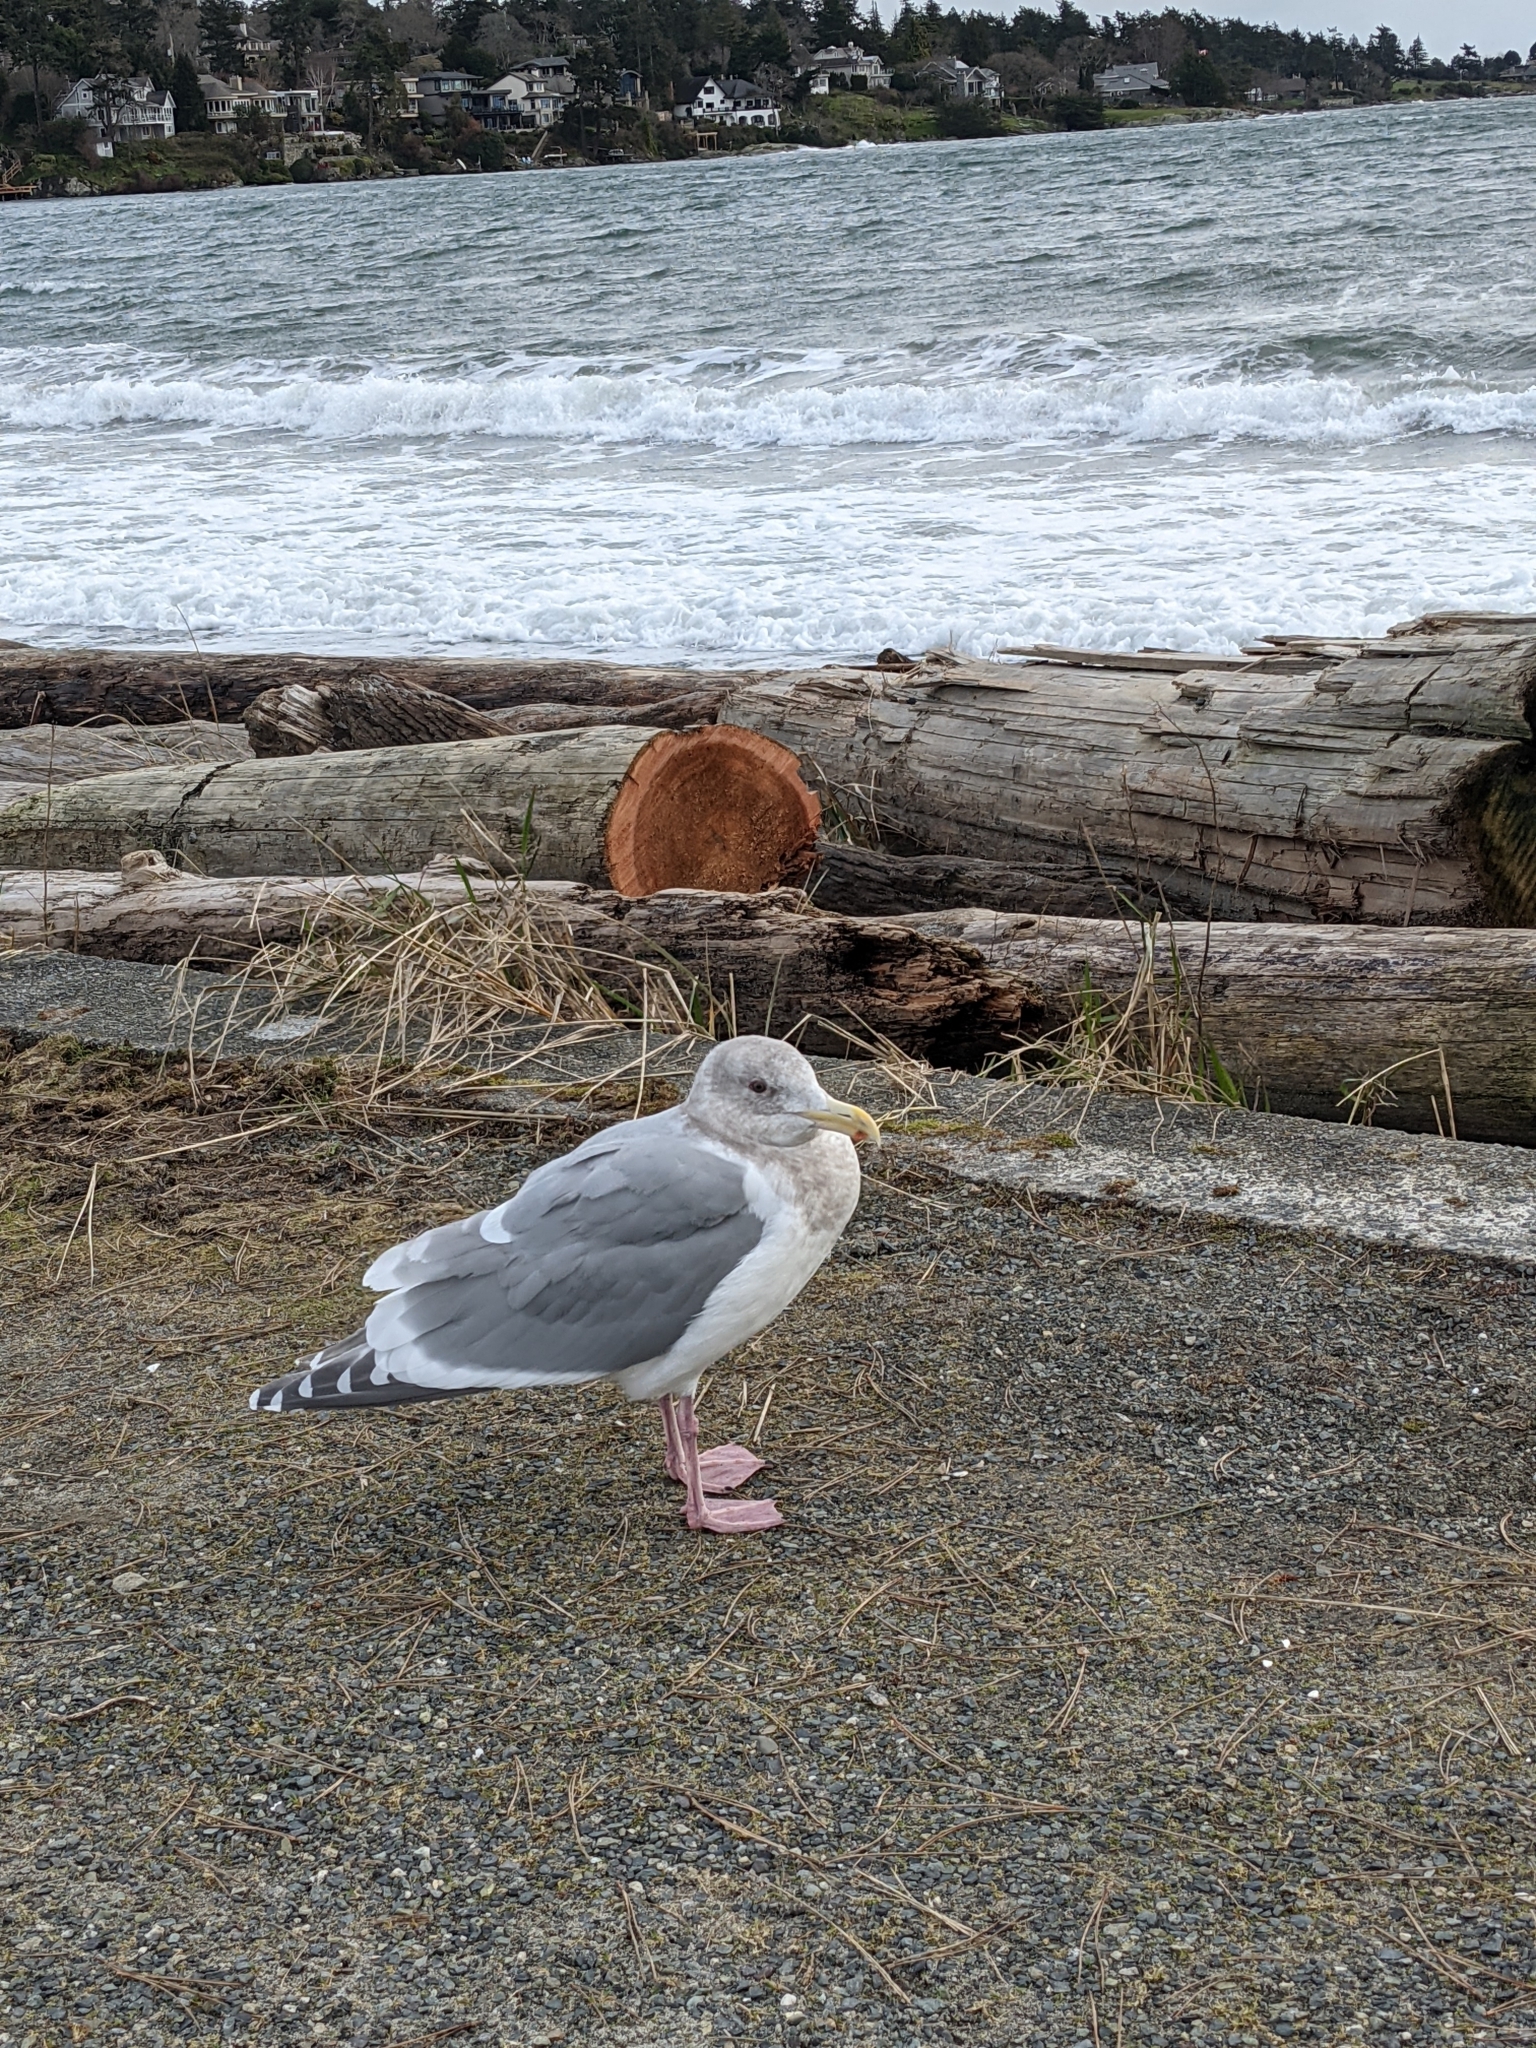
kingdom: Animalia
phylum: Chordata
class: Aves
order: Charadriiformes
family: Laridae
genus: Larus
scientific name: Larus
